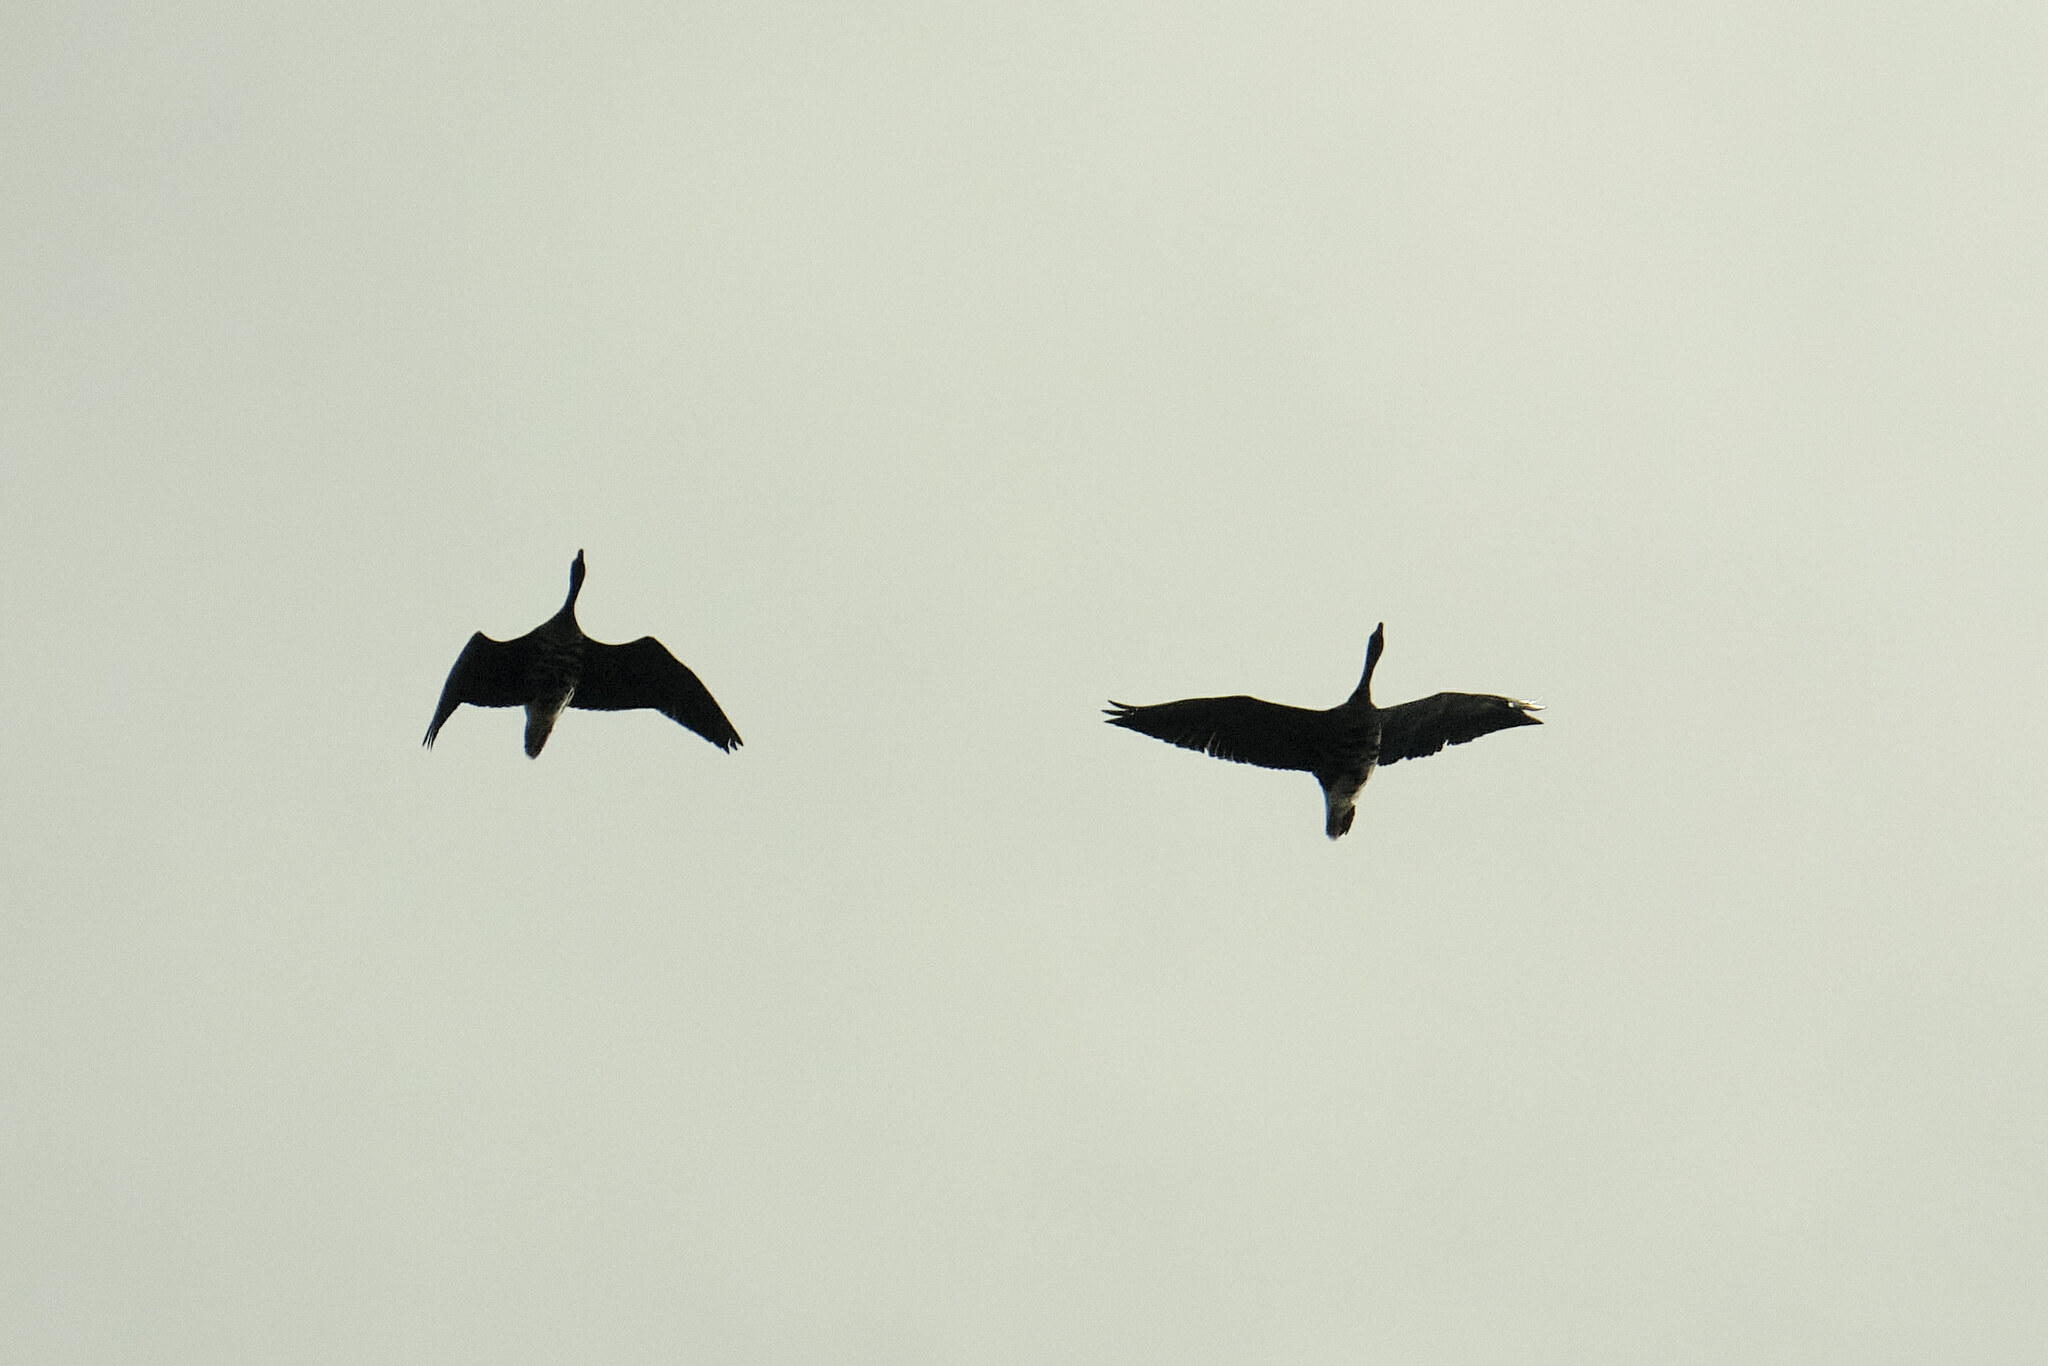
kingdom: Animalia
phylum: Chordata
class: Aves
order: Anseriformes
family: Anatidae
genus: Anser
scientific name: Anser albifrons
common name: Greater white-fronted goose
